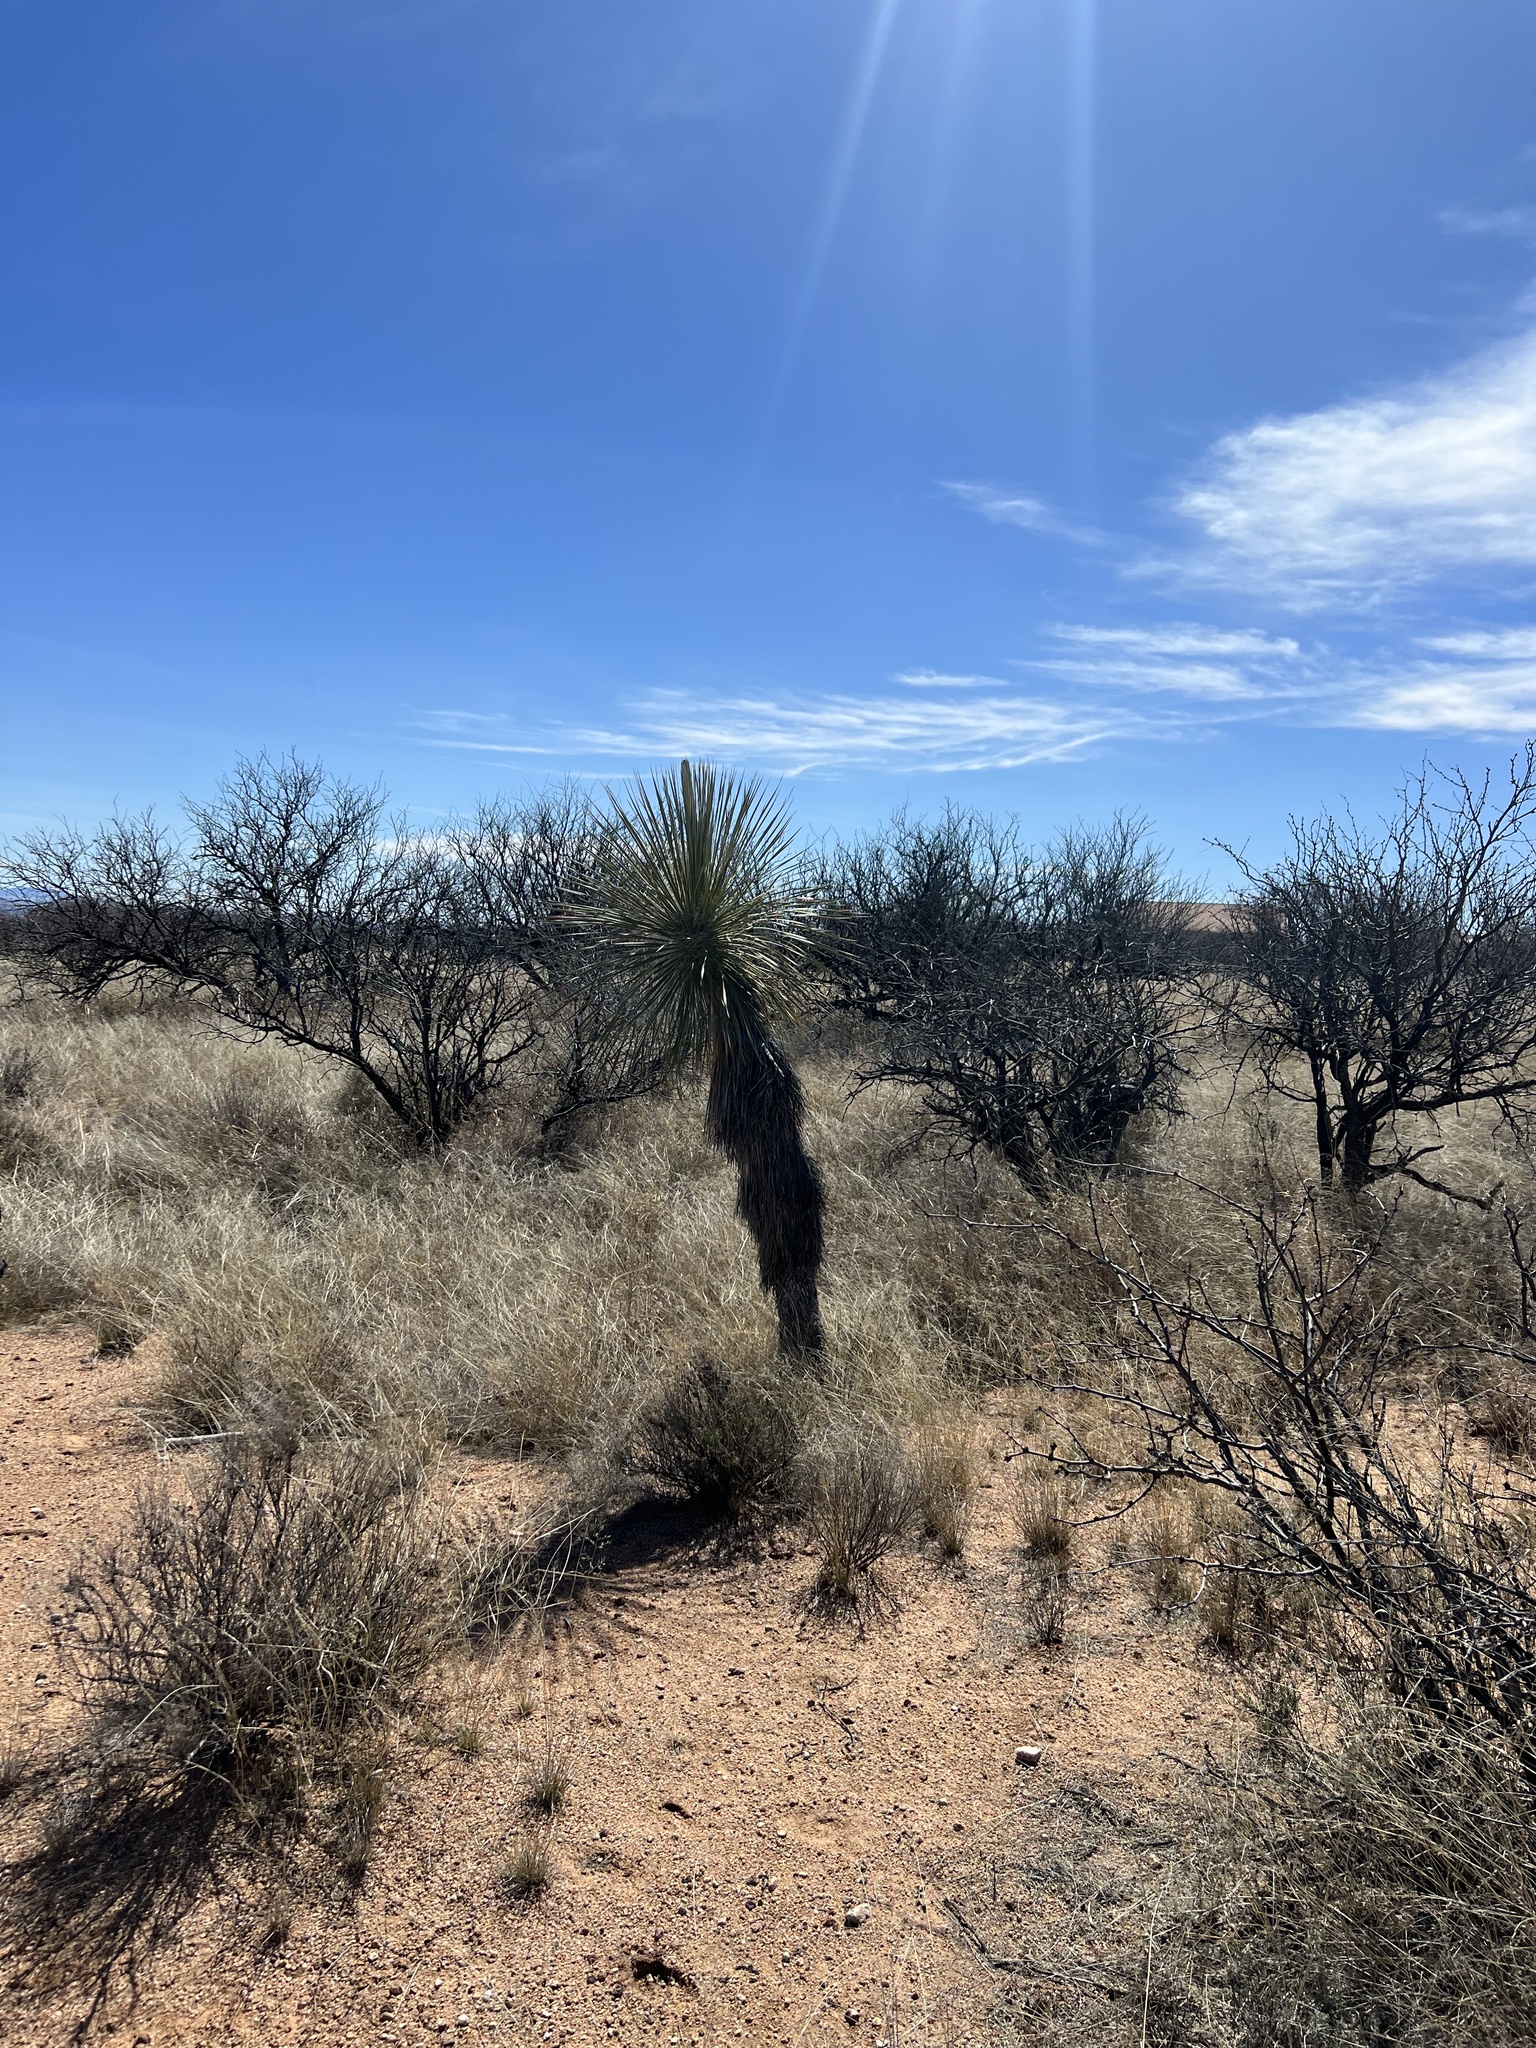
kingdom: Plantae
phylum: Tracheophyta
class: Liliopsida
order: Asparagales
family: Asparagaceae
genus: Yucca
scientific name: Yucca elata
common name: Palmella
